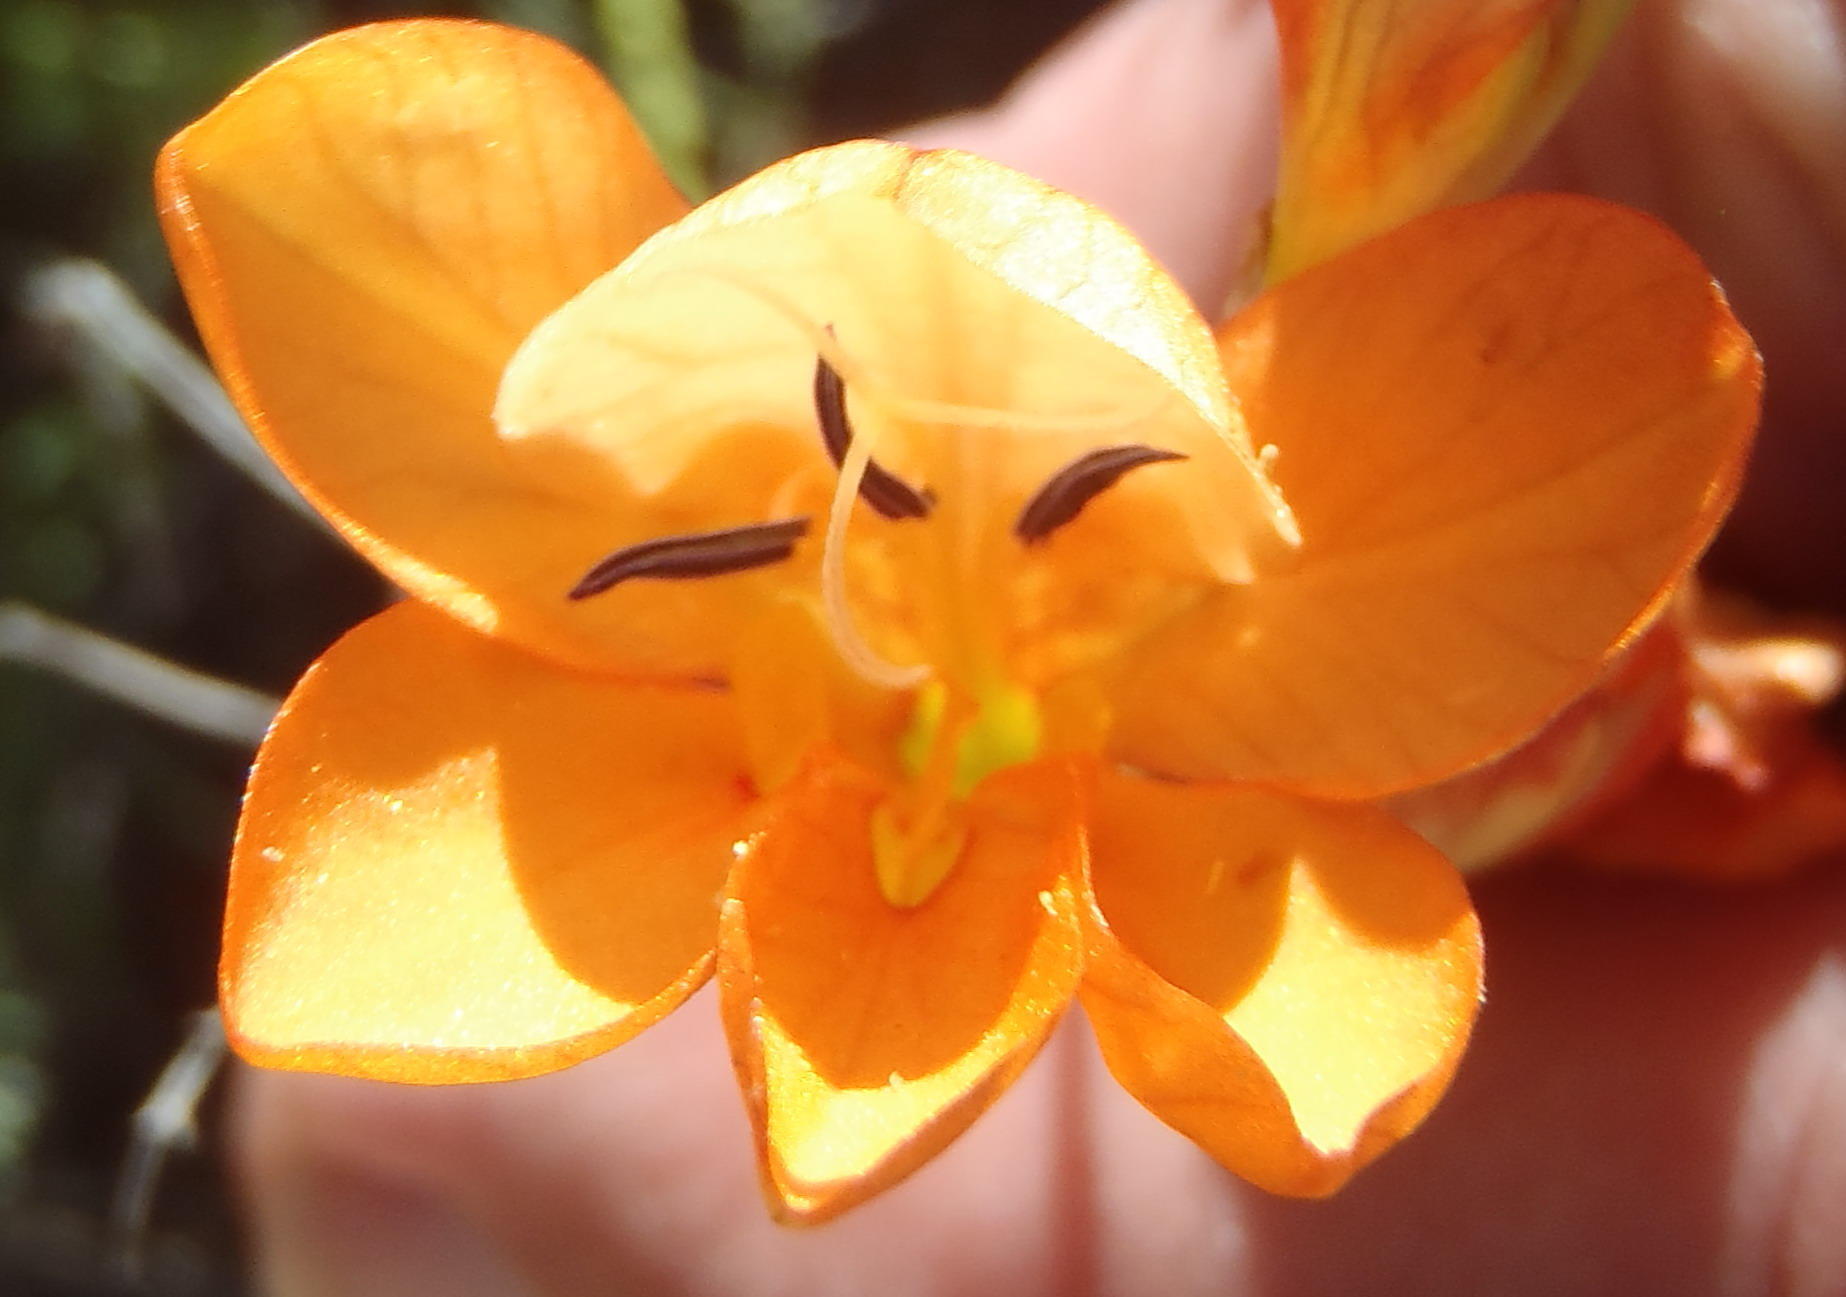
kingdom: Plantae
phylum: Tracheophyta
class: Liliopsida
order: Asparagales
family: Iridaceae
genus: Tritonia
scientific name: Tritonia securigera
